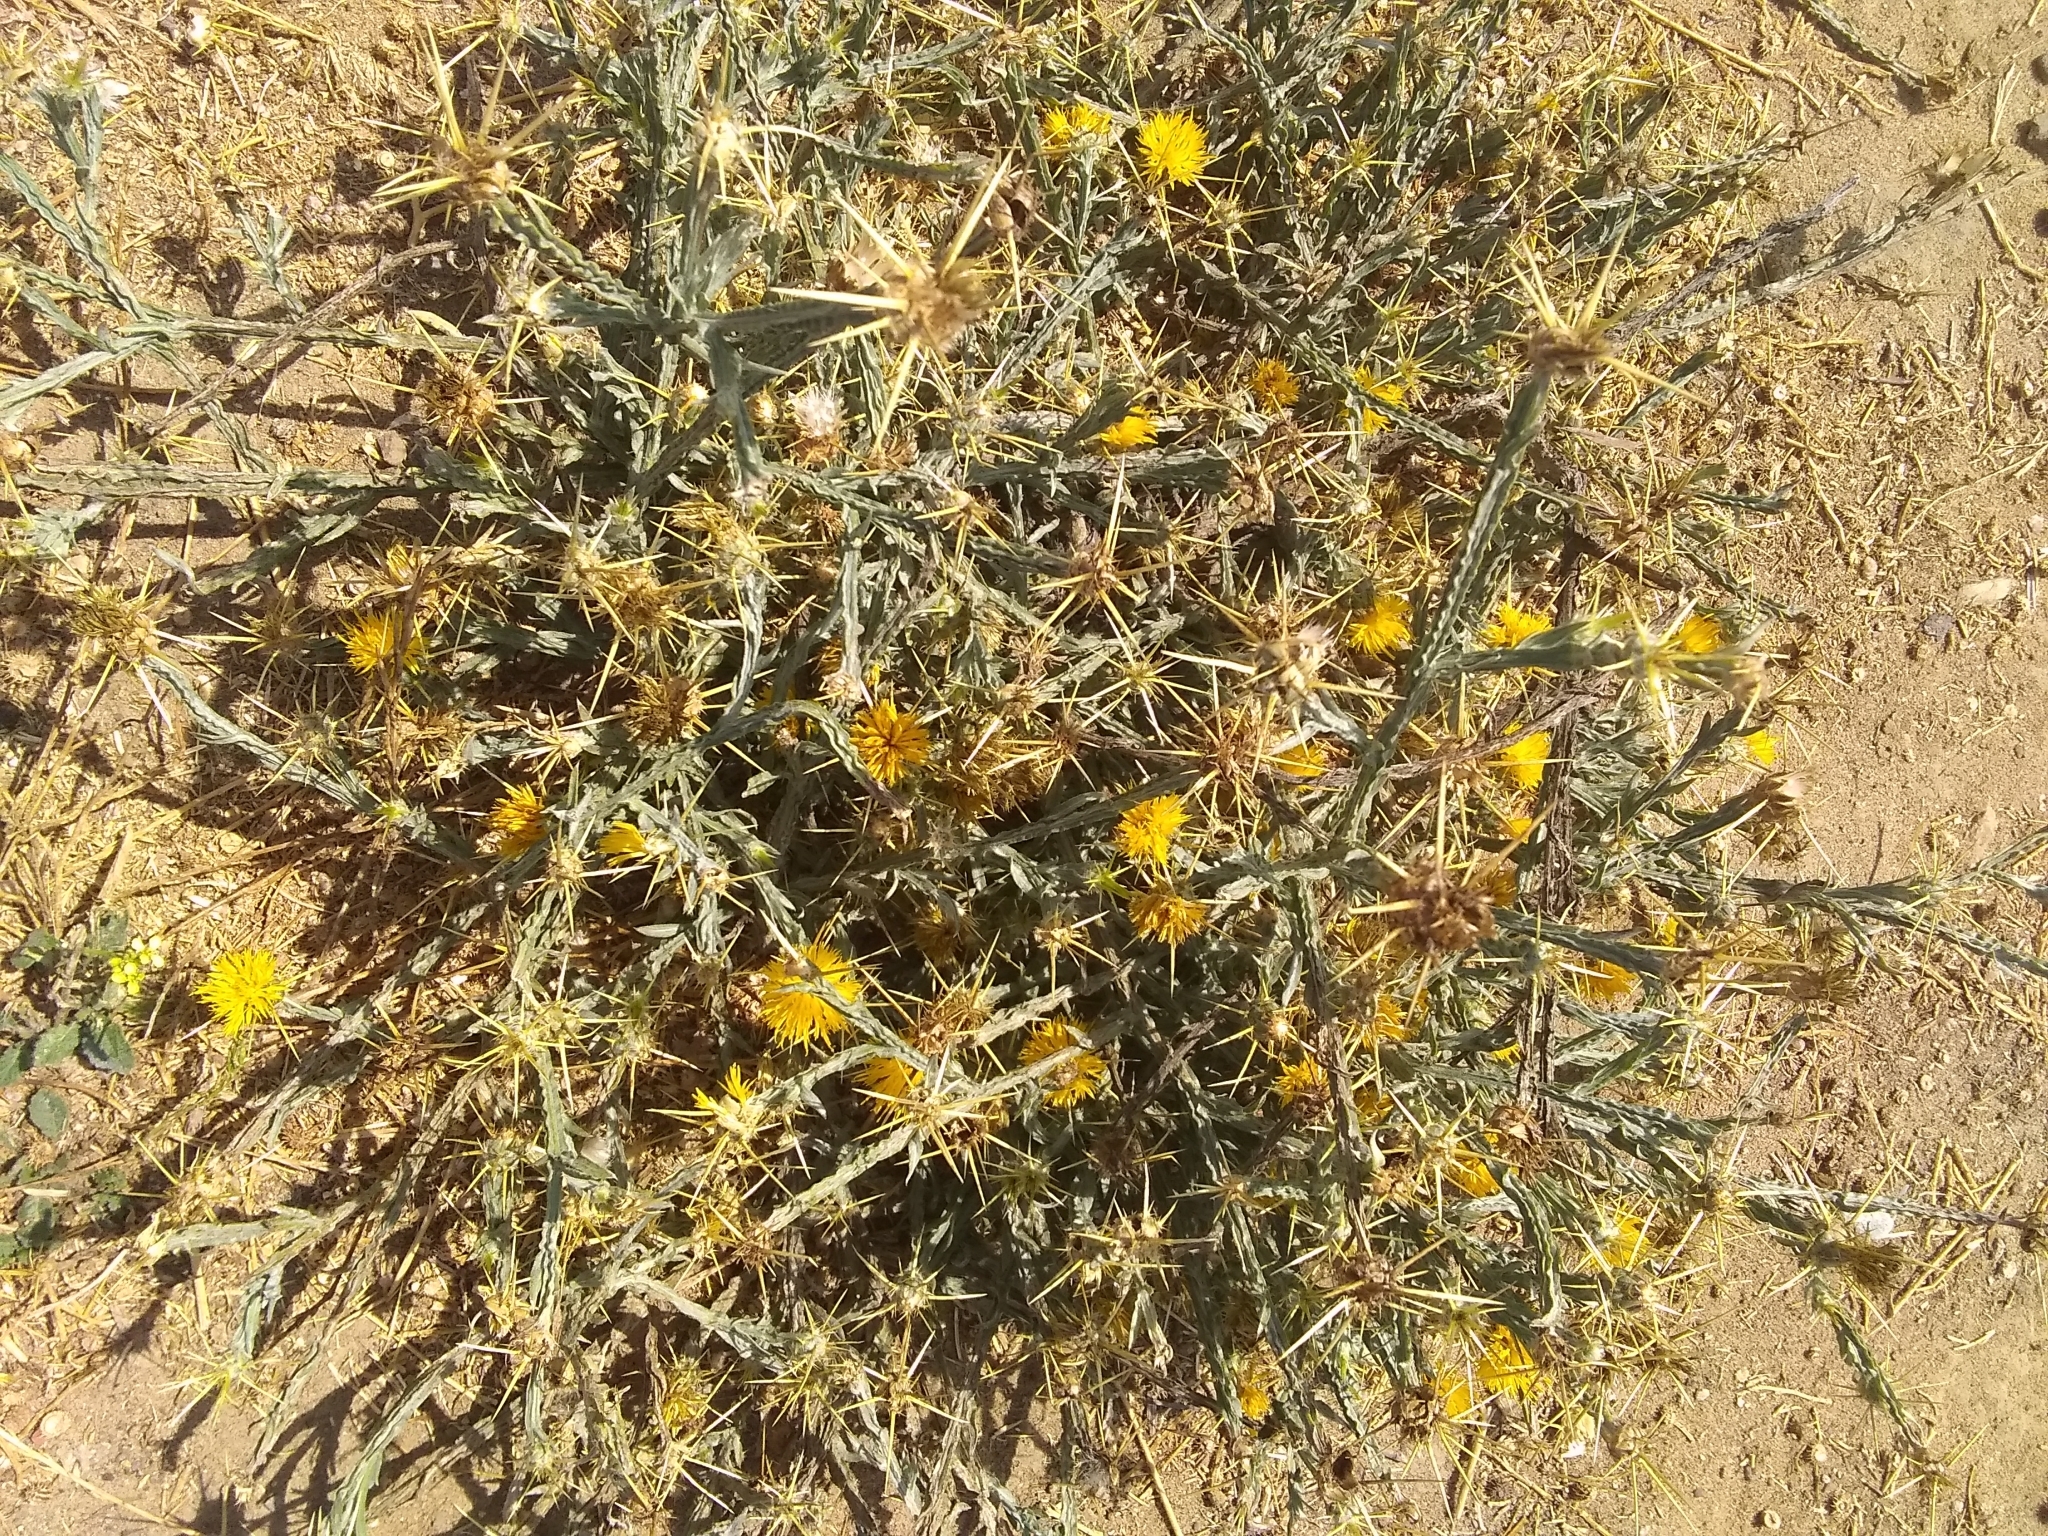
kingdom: Plantae
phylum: Tracheophyta
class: Magnoliopsida
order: Asterales
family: Asteraceae
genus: Centaurea
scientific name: Centaurea solstitialis
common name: Yellow star-thistle
